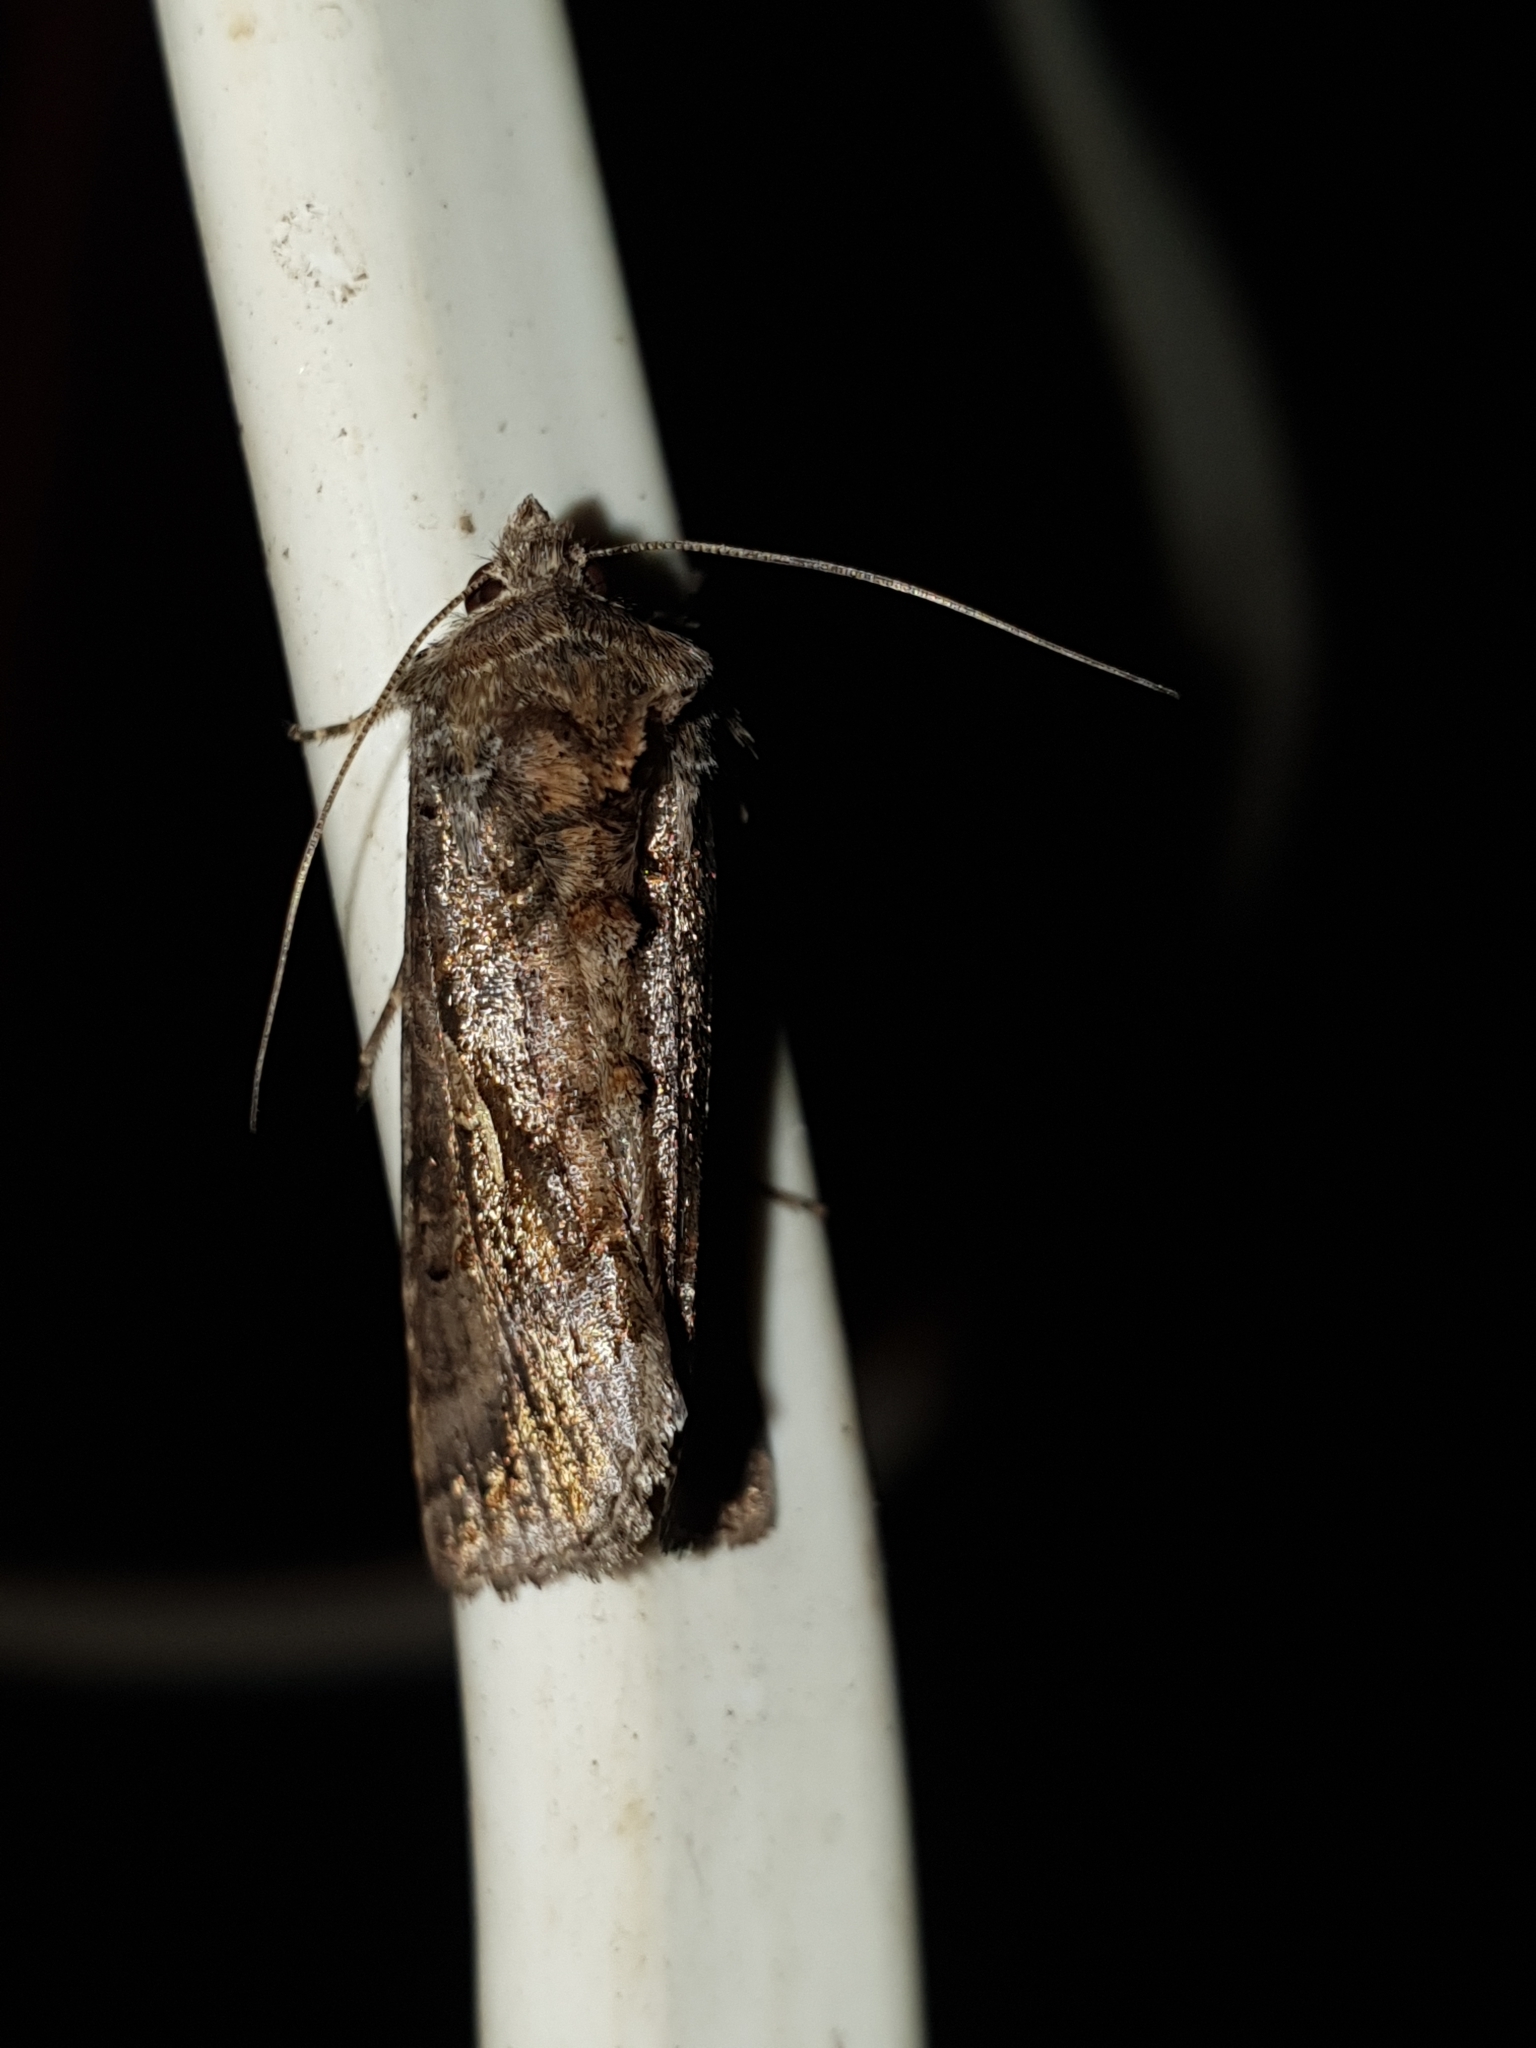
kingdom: Animalia
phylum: Arthropoda
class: Insecta
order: Lepidoptera
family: Noctuidae
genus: Autographa
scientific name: Autographa gamma
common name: Silver y
